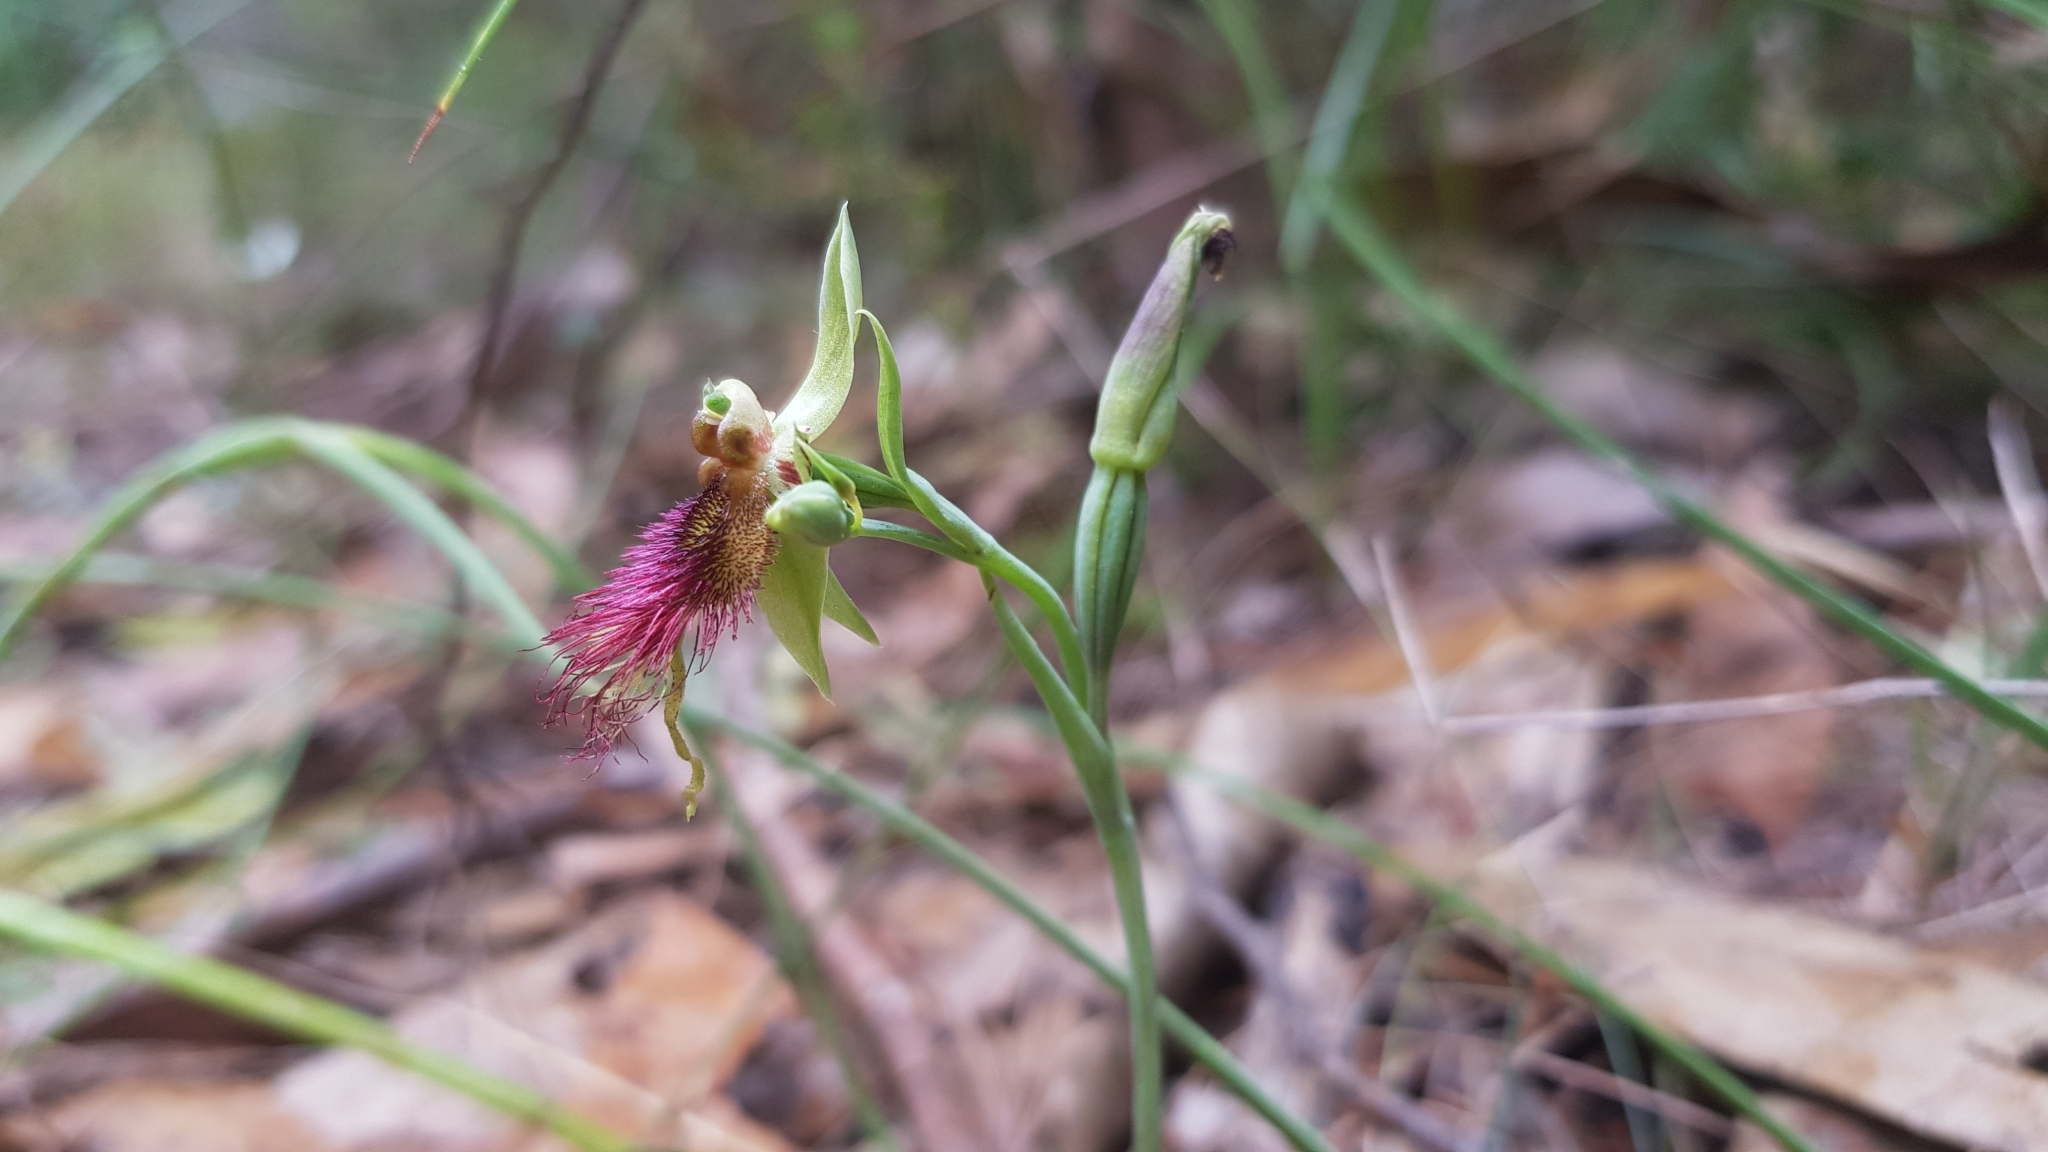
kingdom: Plantae
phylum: Tracheophyta
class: Liliopsida
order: Asparagales
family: Orchidaceae
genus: Calochilus
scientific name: Calochilus paludosus
